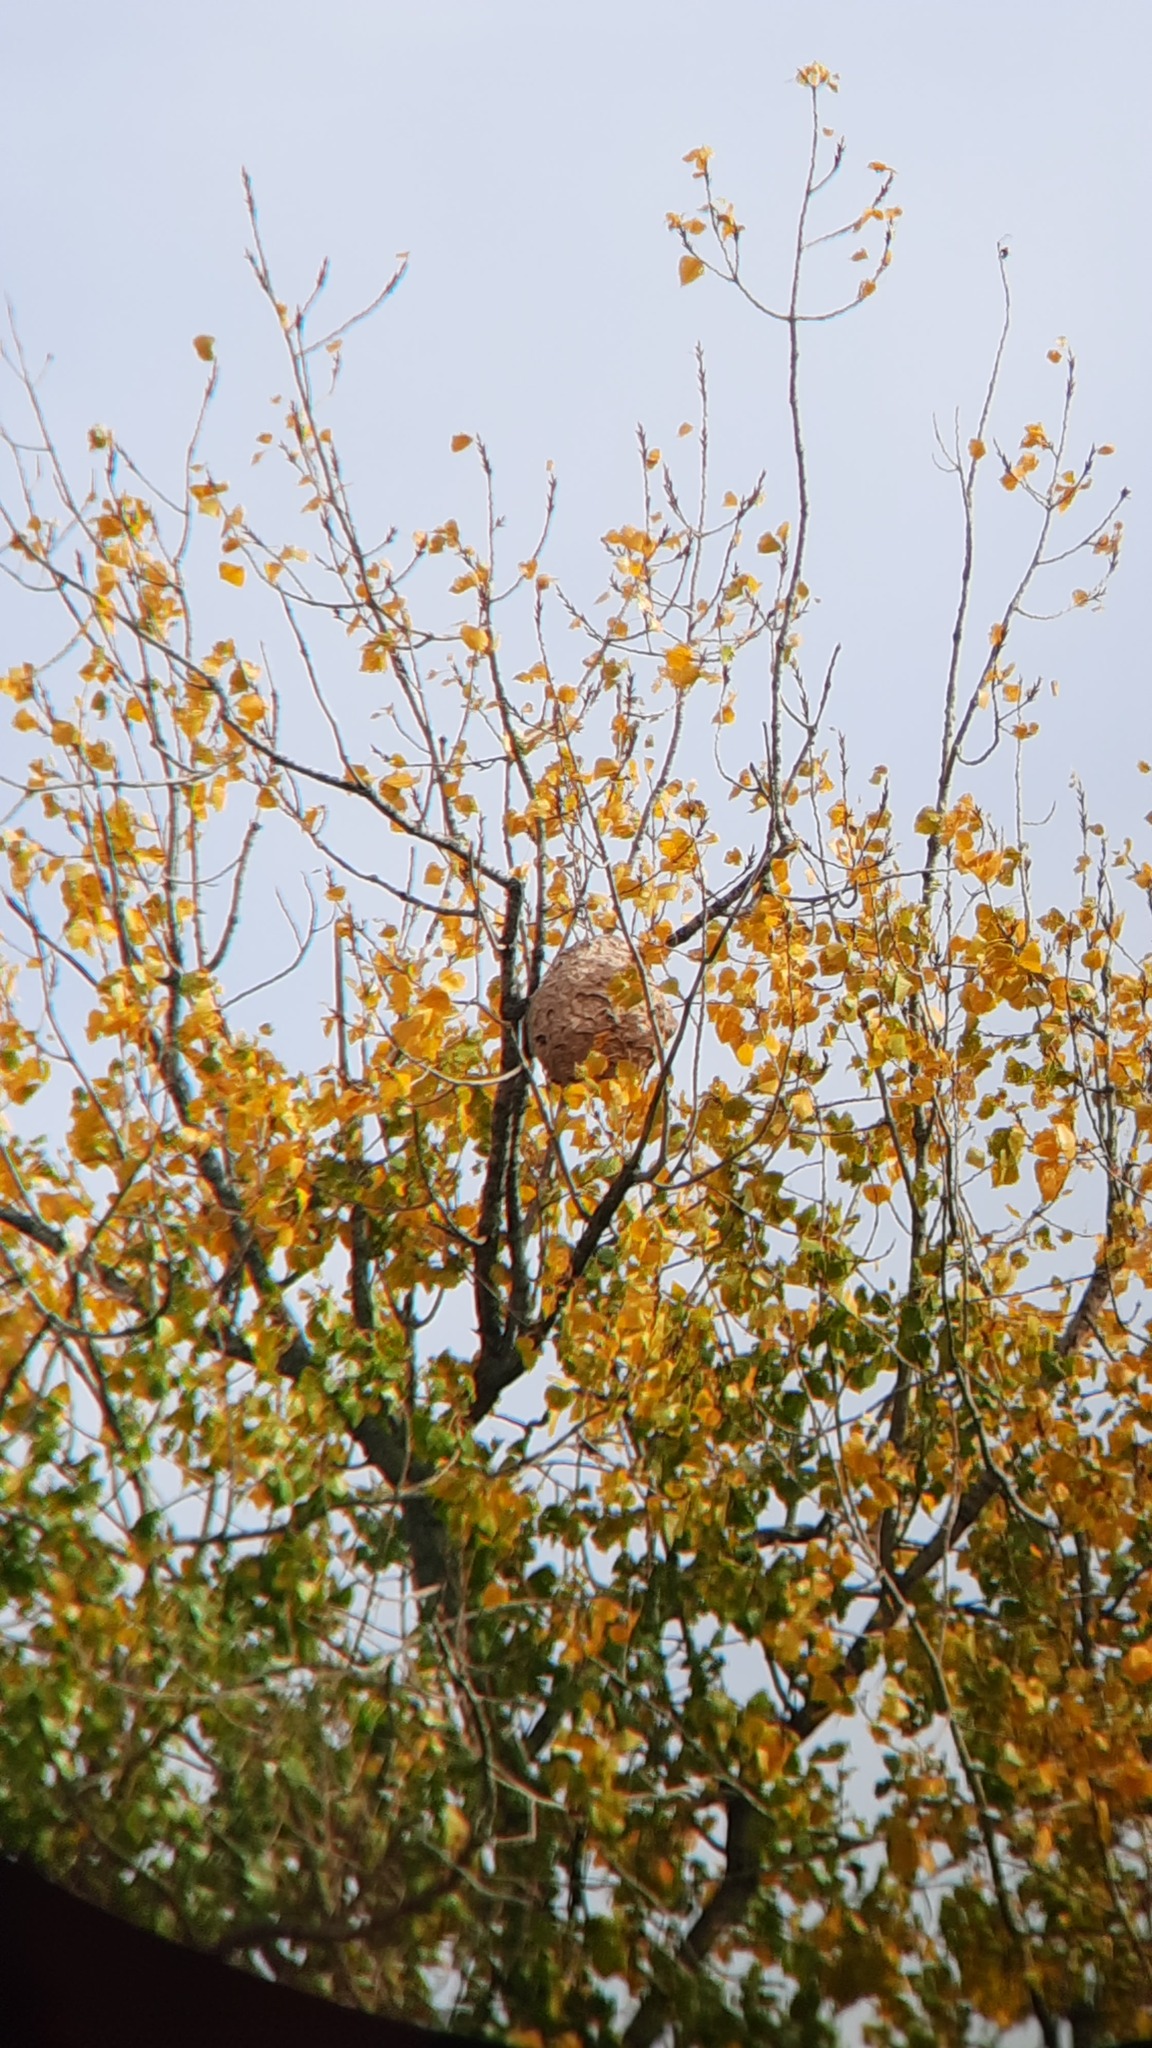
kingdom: Animalia
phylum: Arthropoda
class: Insecta
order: Hymenoptera
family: Vespidae
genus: Vespa
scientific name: Vespa velutina
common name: Asian hornet
